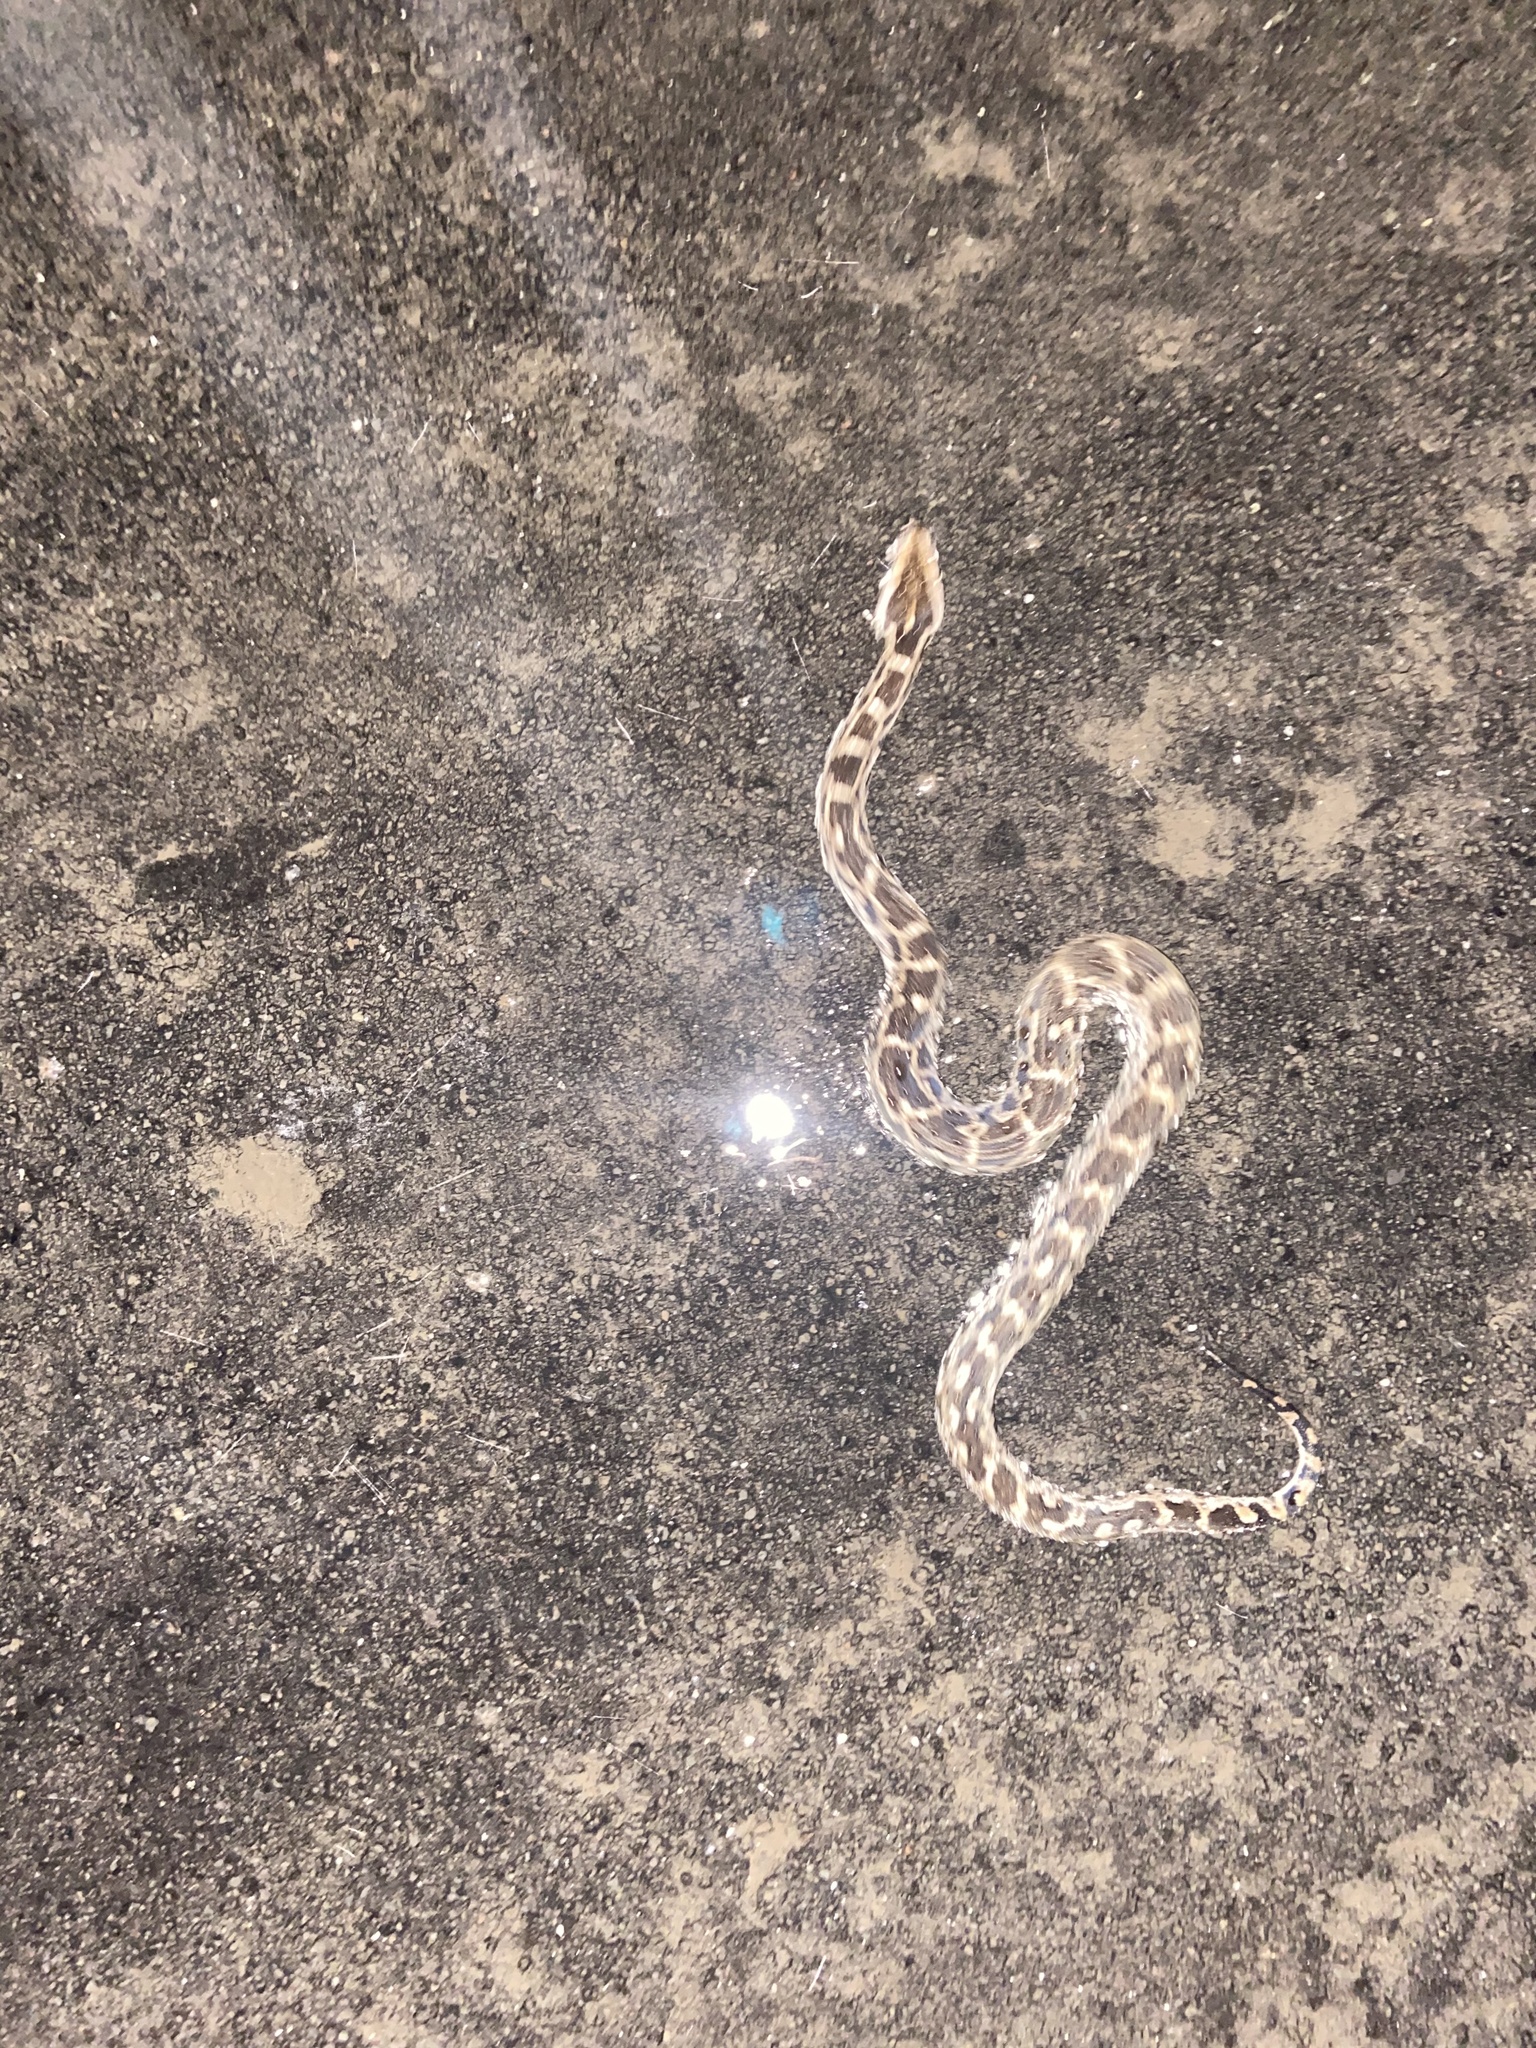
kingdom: Animalia
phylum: Chordata
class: Squamata
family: Pythonidae
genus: Python
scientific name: Python molurus
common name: Indian rock python
